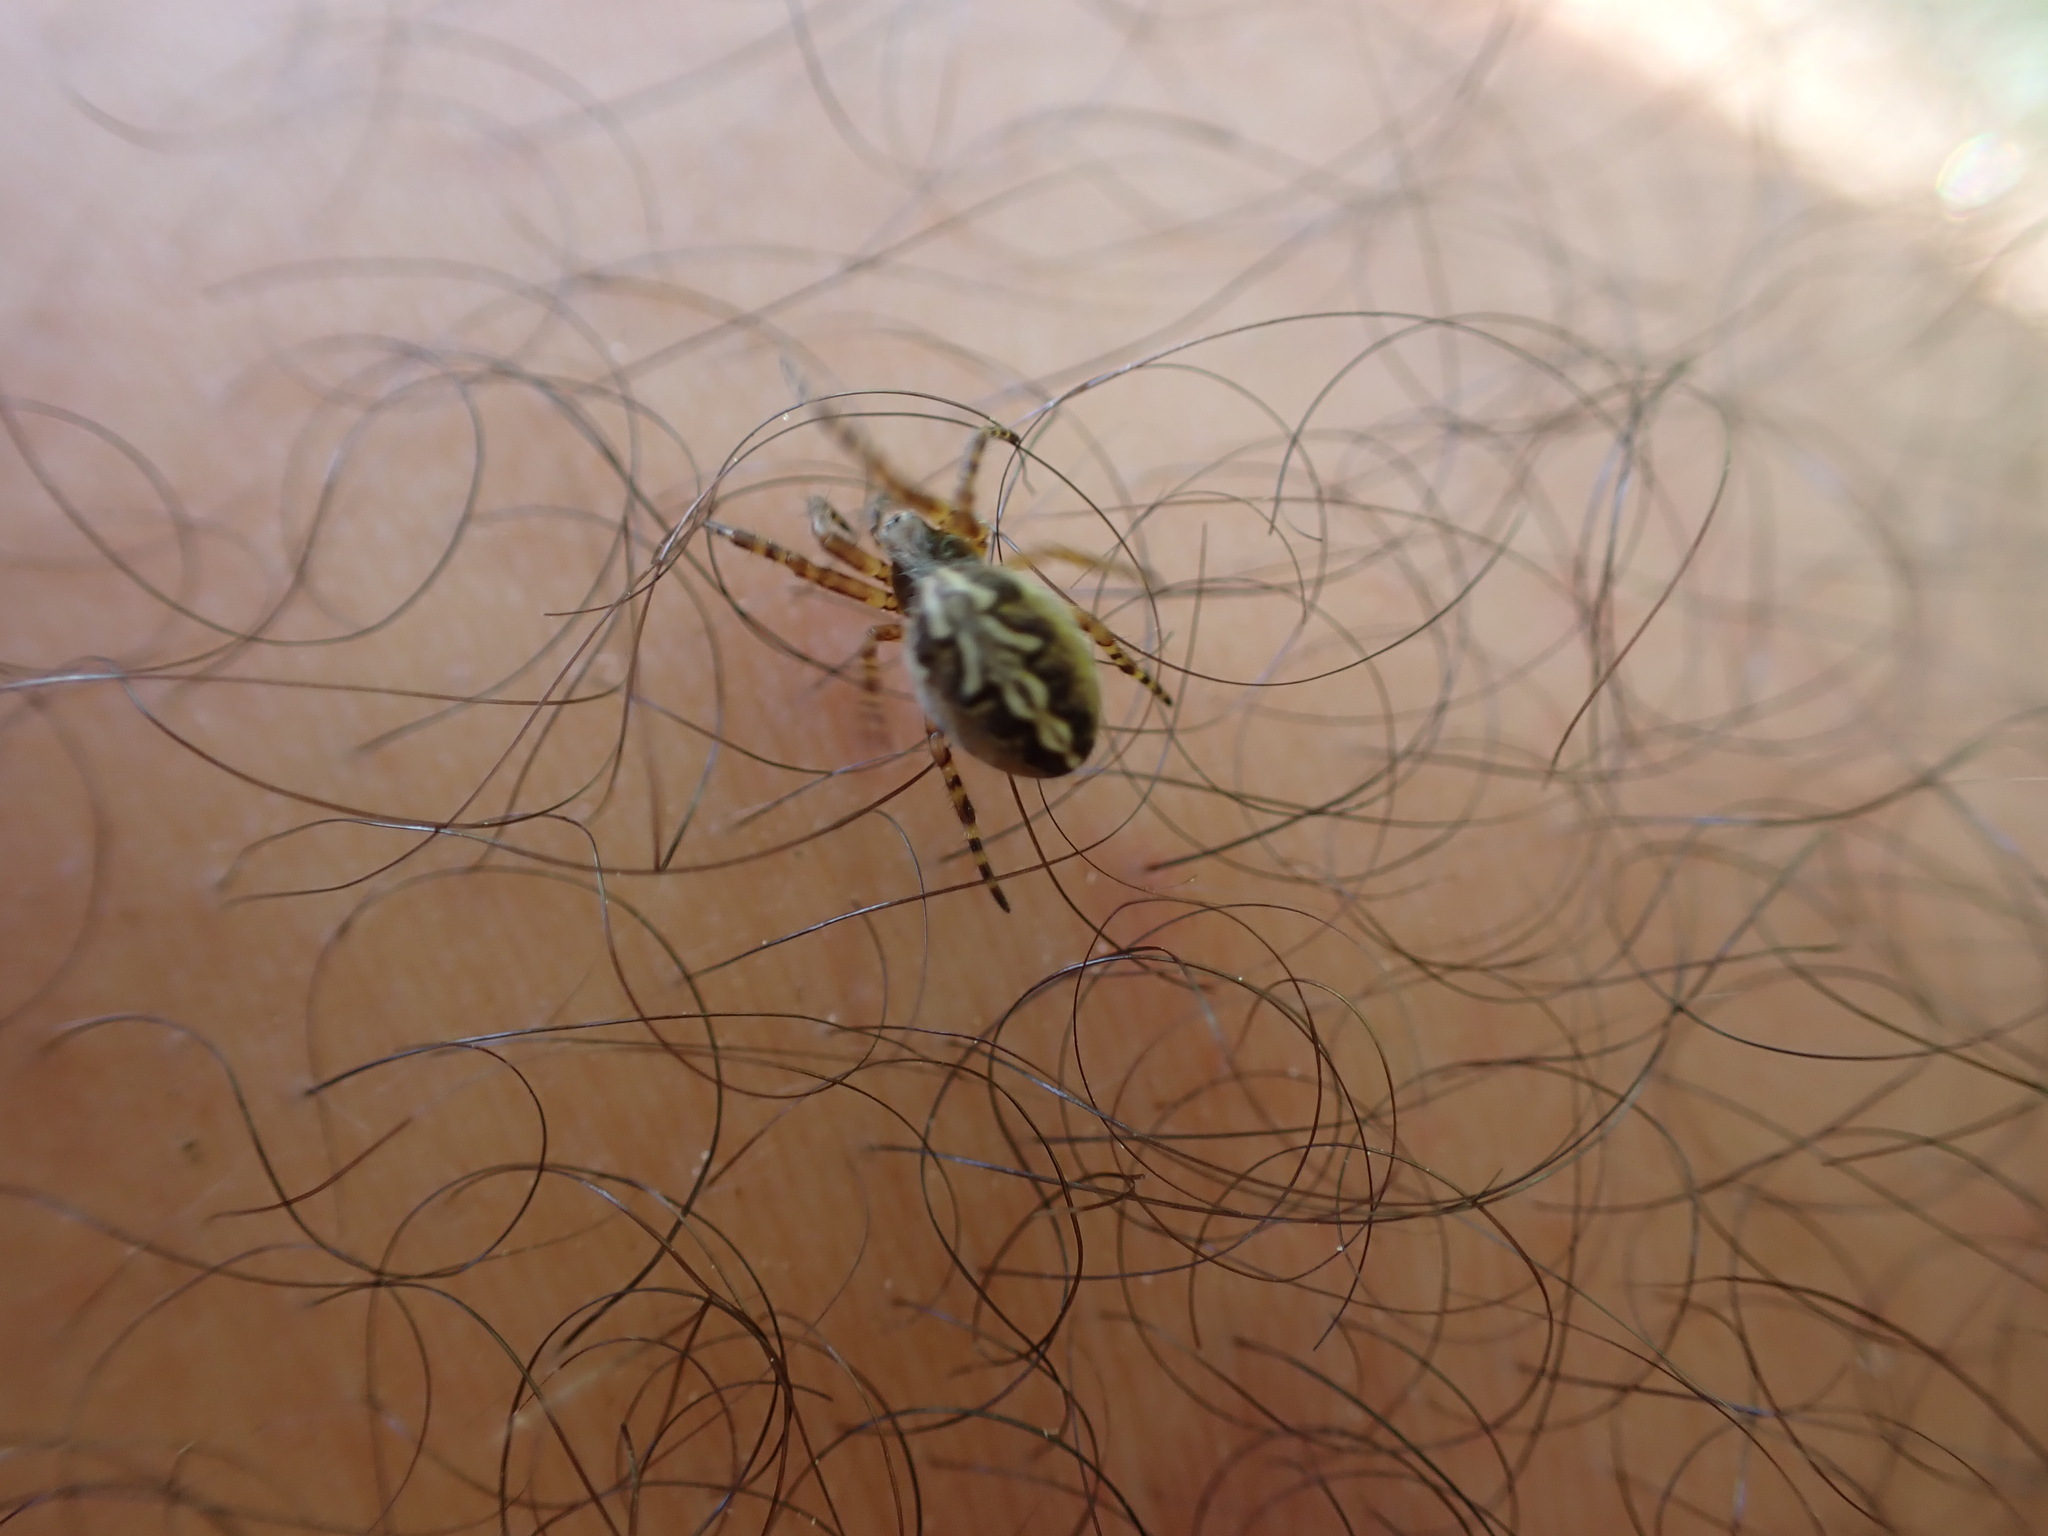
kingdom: Animalia
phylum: Arthropoda
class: Arachnida
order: Araneae
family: Araneidae
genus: Aculepeira
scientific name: Aculepeira ceropegia
